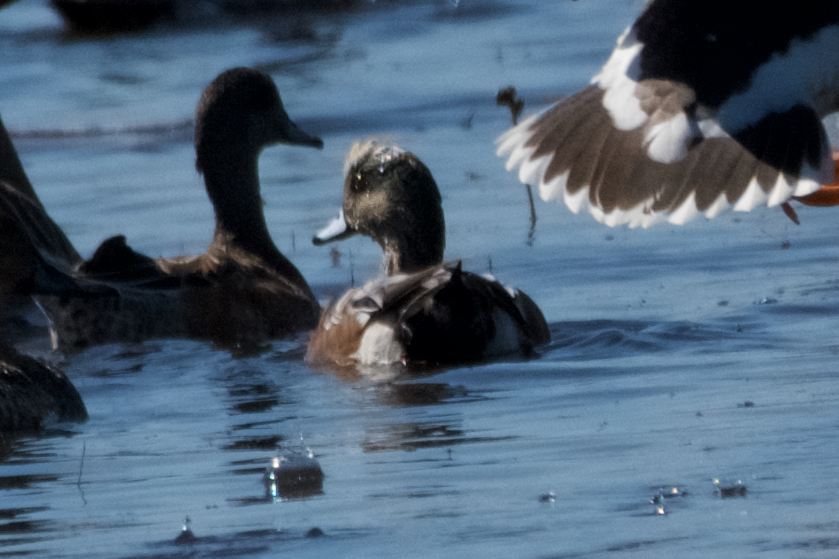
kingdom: Animalia
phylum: Chordata
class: Aves
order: Anseriformes
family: Anatidae
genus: Mareca
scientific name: Mareca americana
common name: American wigeon
